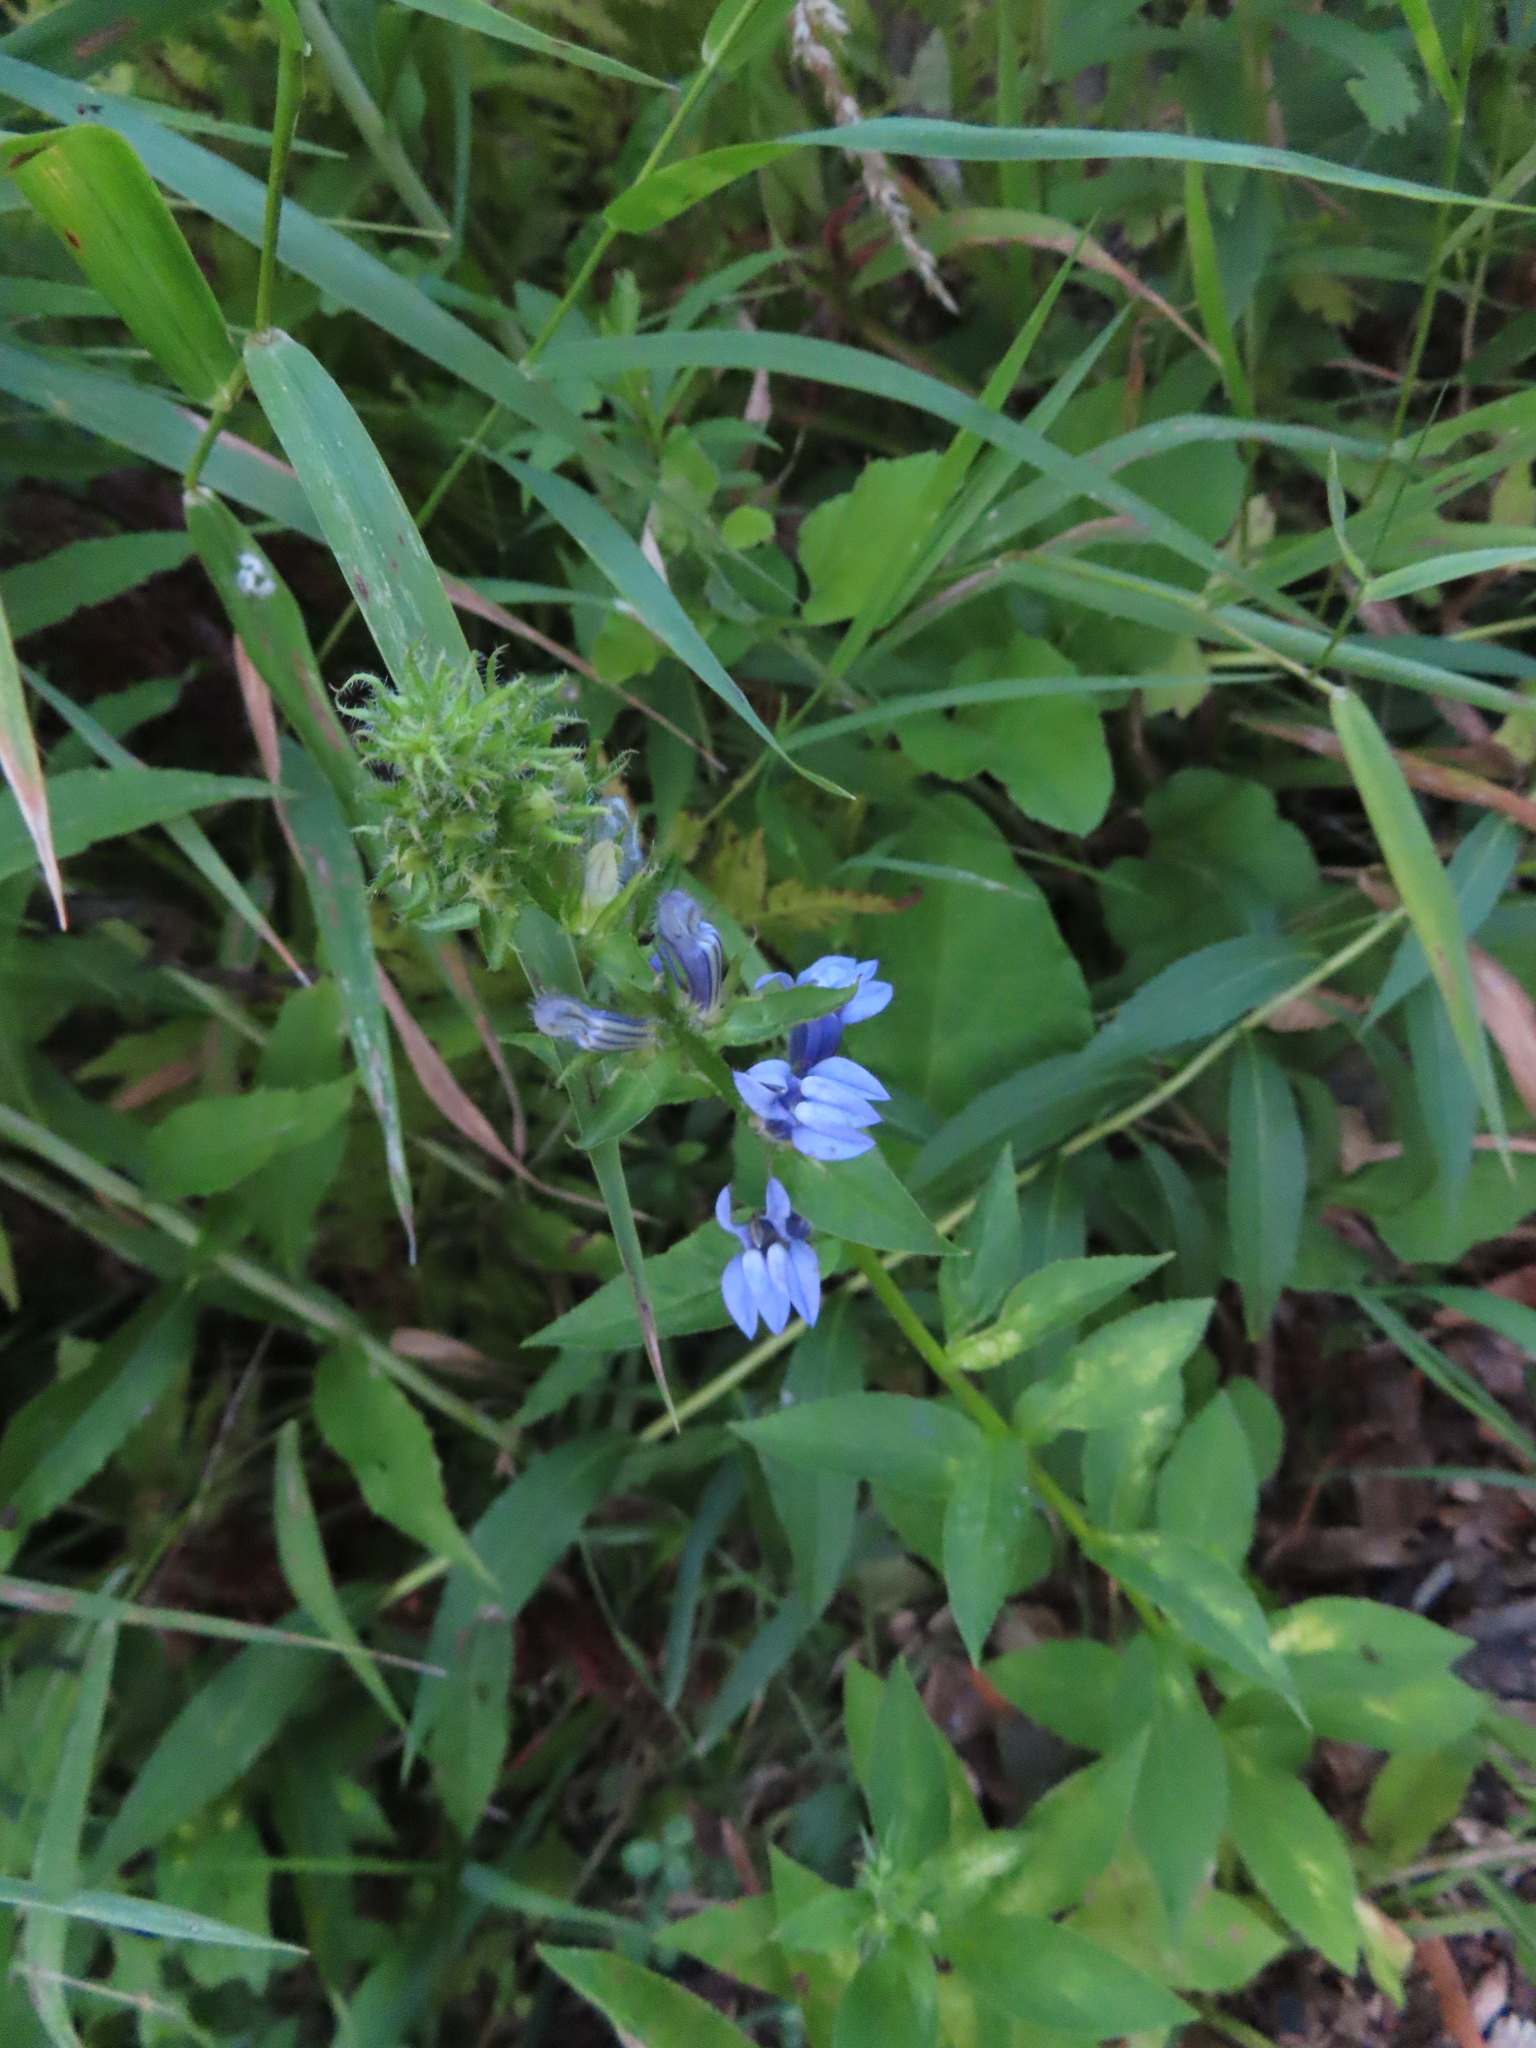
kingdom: Plantae
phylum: Tracheophyta
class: Magnoliopsida
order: Asterales
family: Campanulaceae
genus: Lobelia
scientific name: Lobelia siphilitica
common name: Great lobelia
